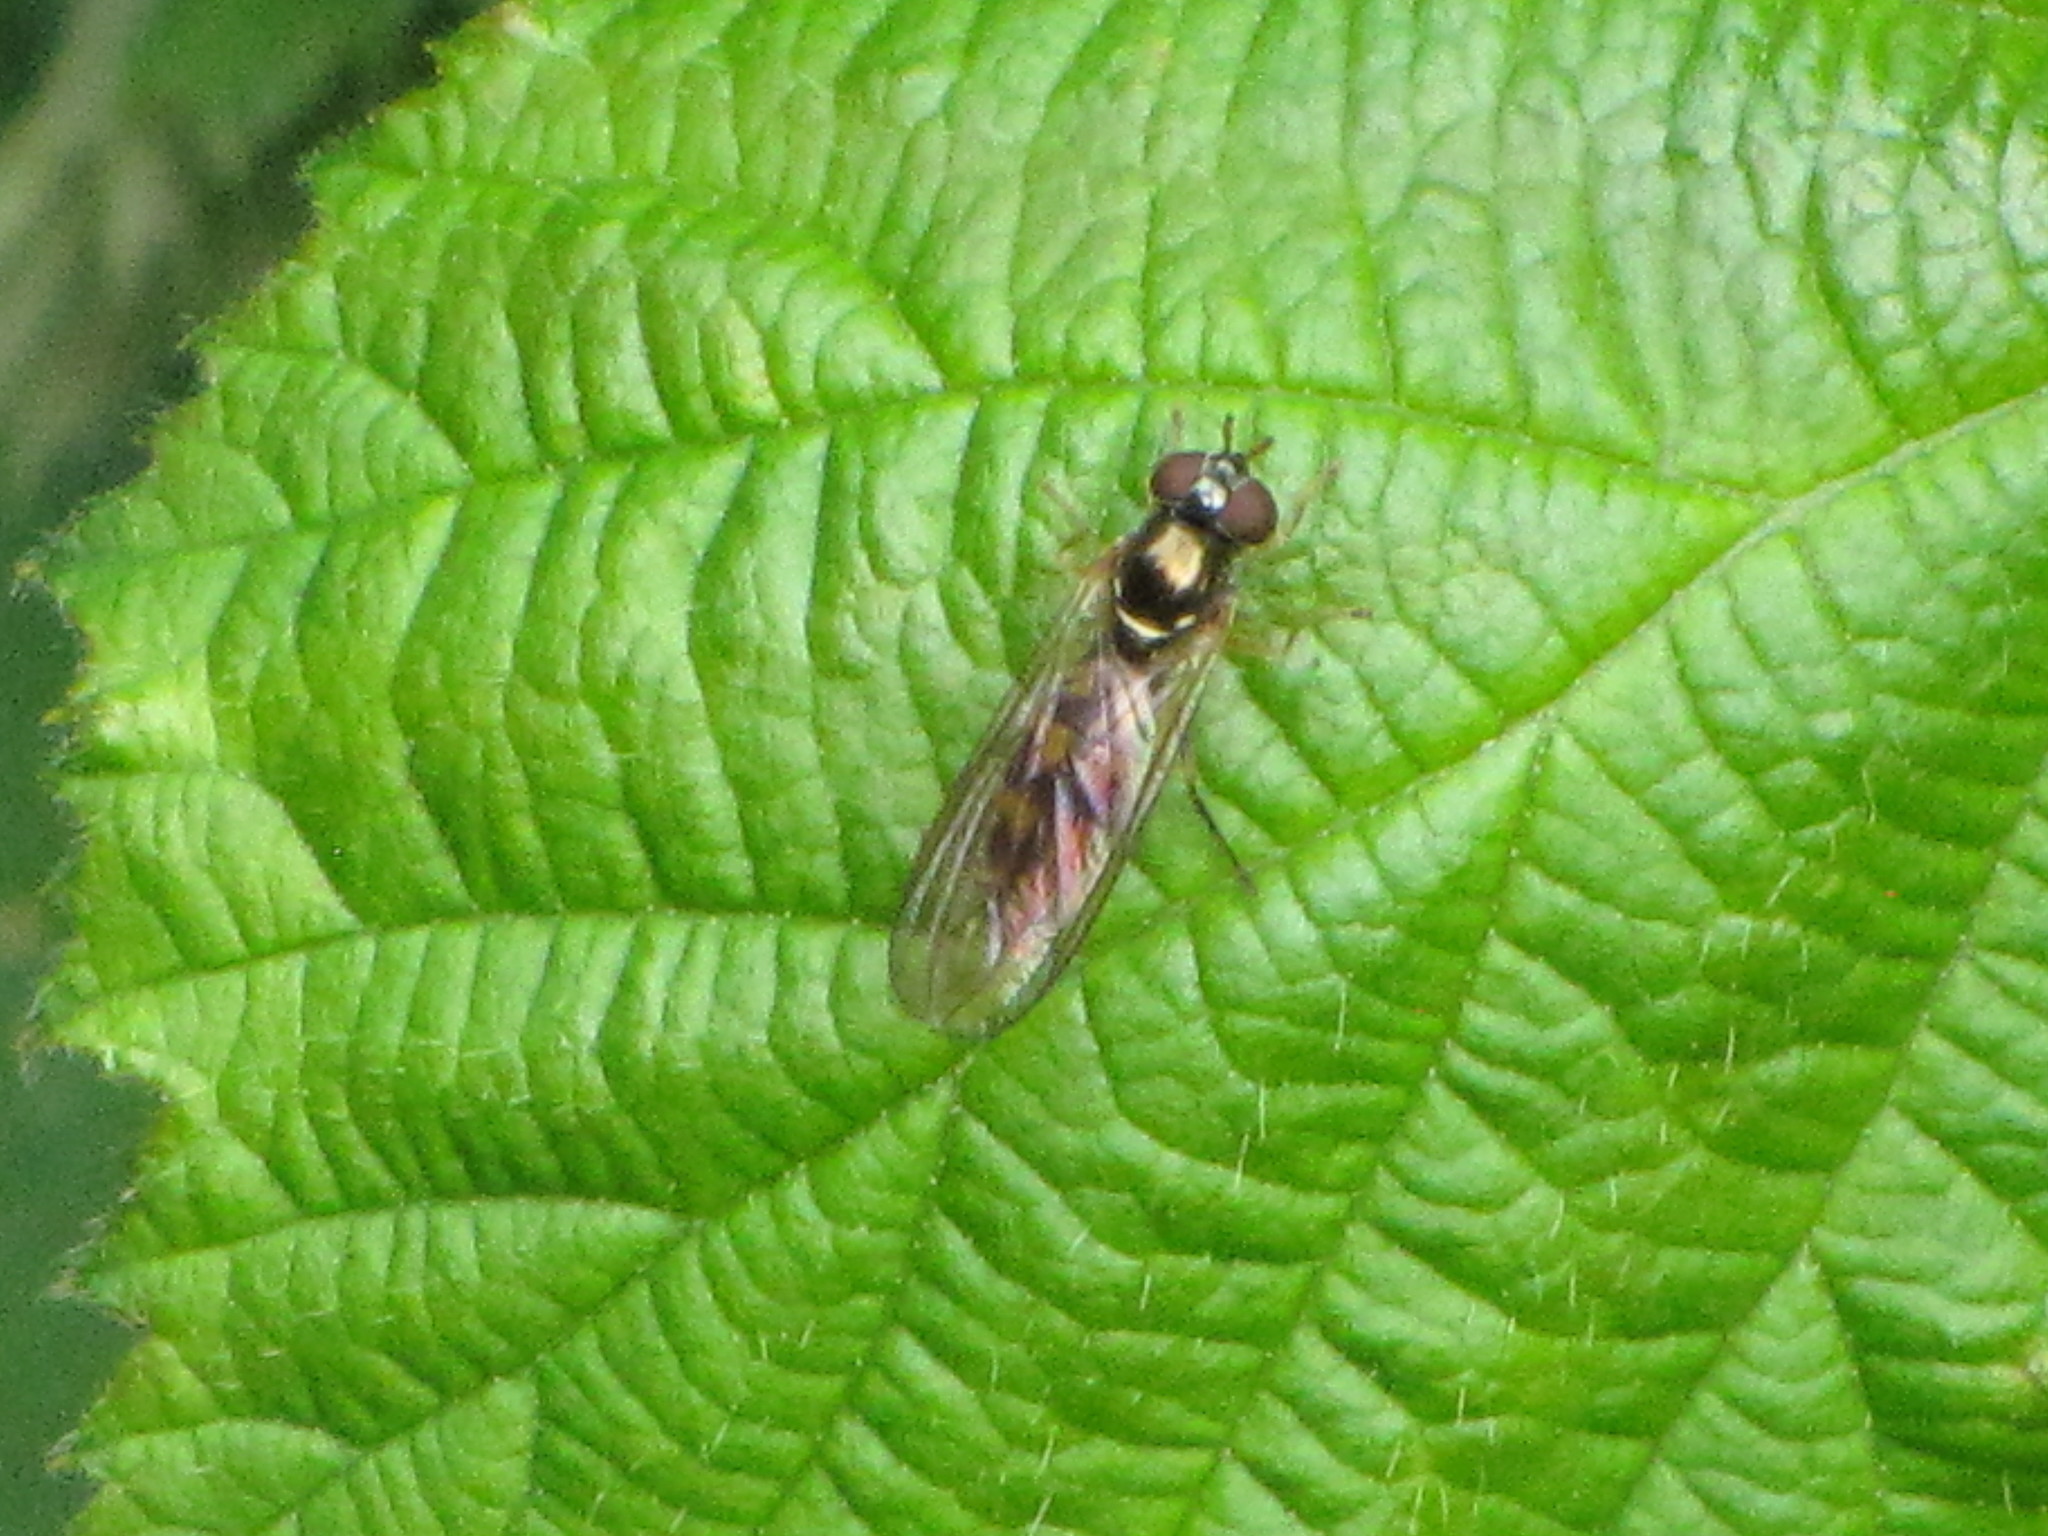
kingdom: Animalia
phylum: Arthropoda
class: Insecta
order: Diptera
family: Syrphidae
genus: Melanostoma
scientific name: Melanostoma mellina
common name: Hover fly
